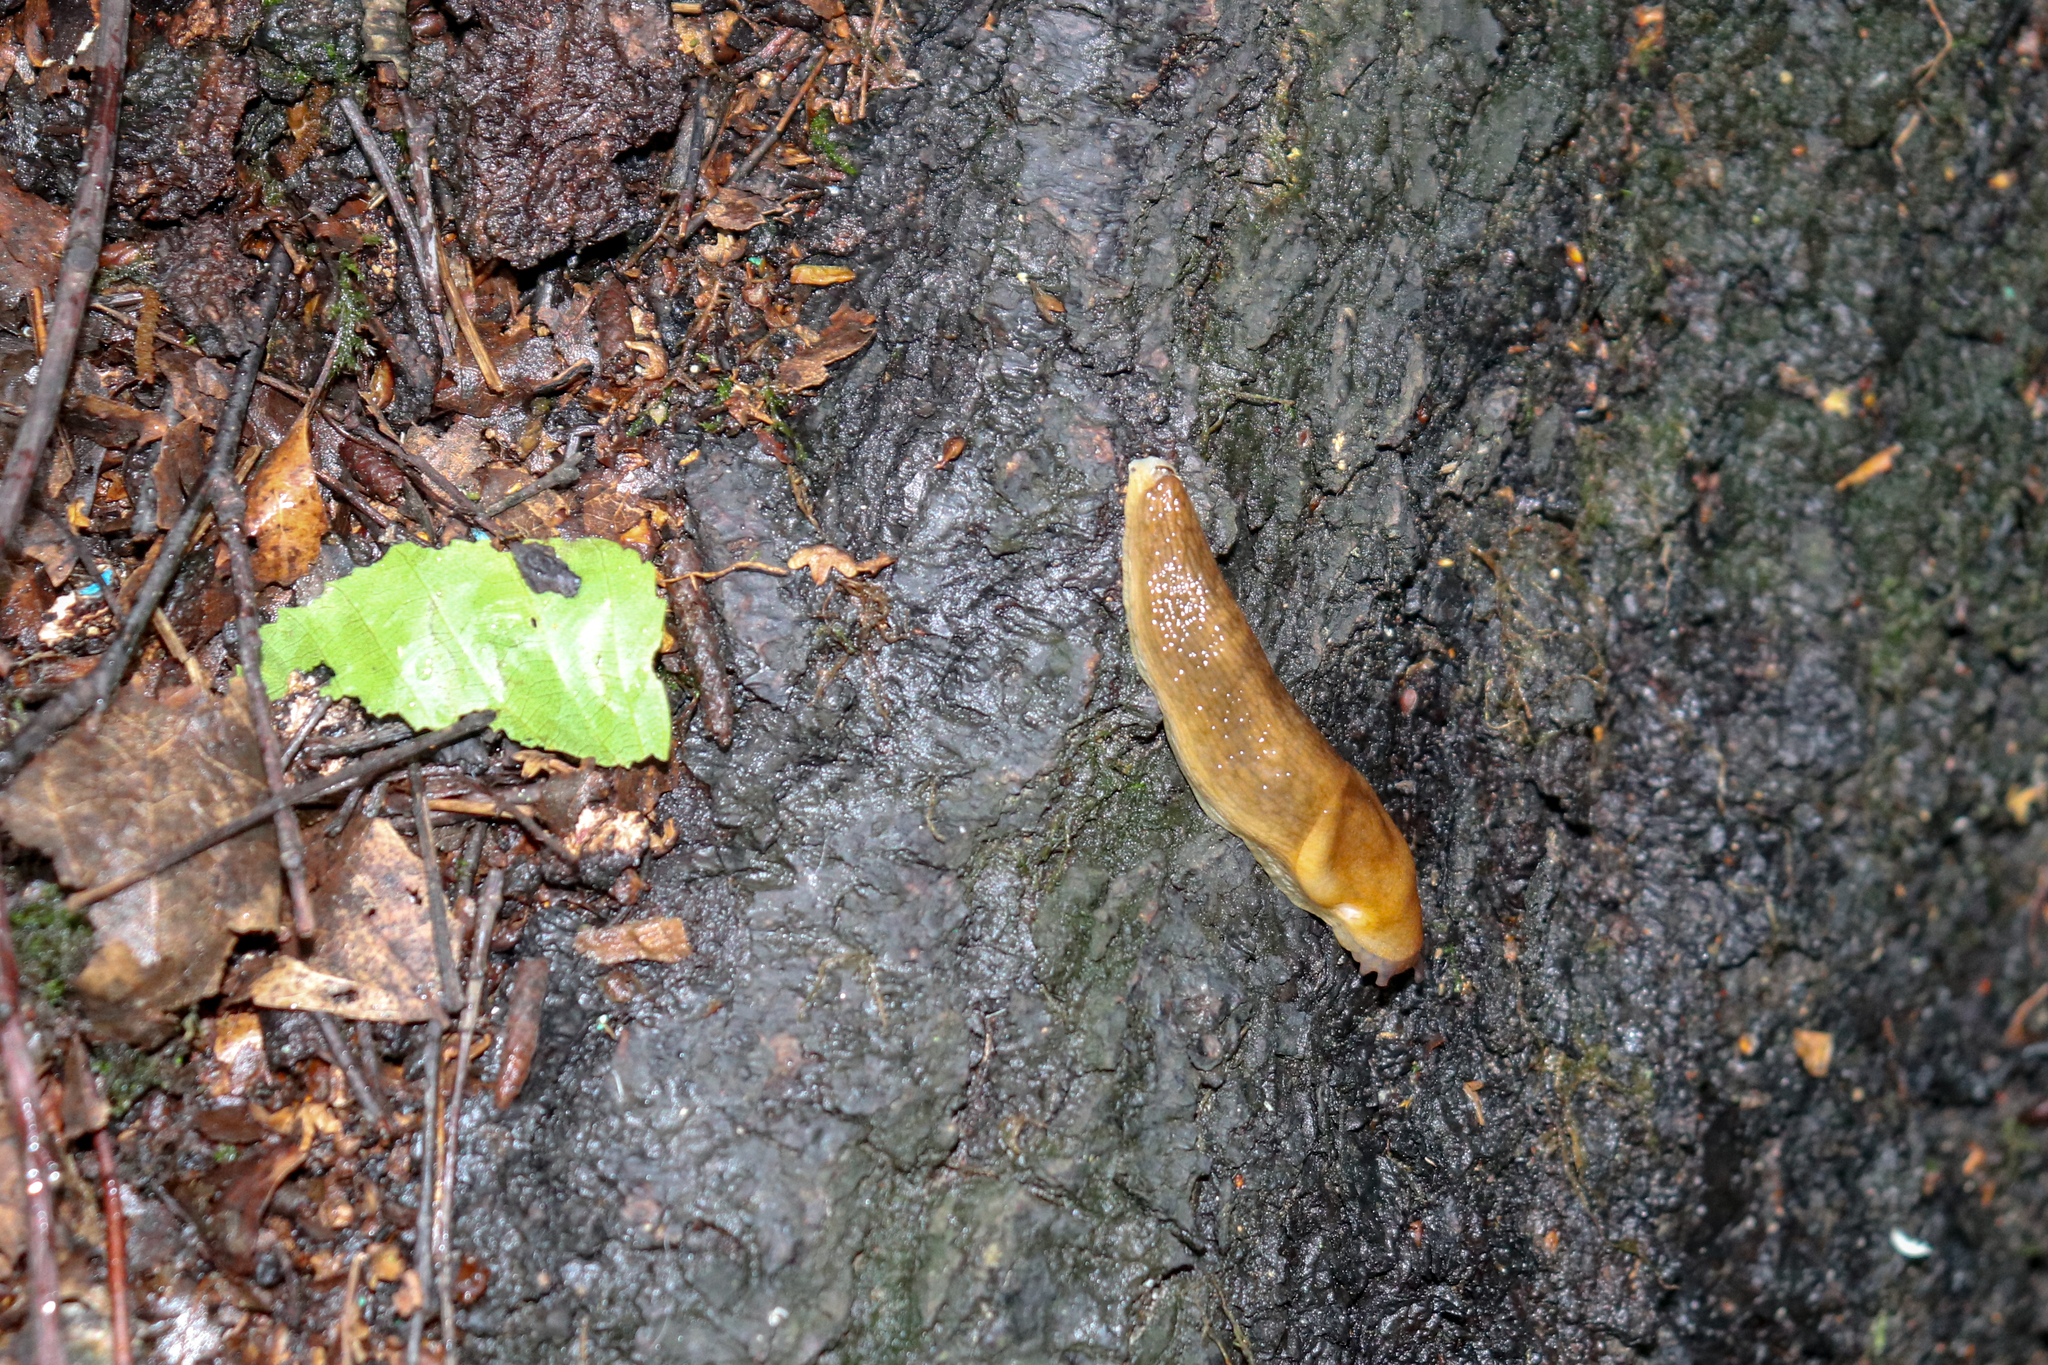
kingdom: Animalia
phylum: Mollusca
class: Gastropoda
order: Stylommatophora
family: Arionidae
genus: Arion
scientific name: Arion fuscus
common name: Northern dusky slug
